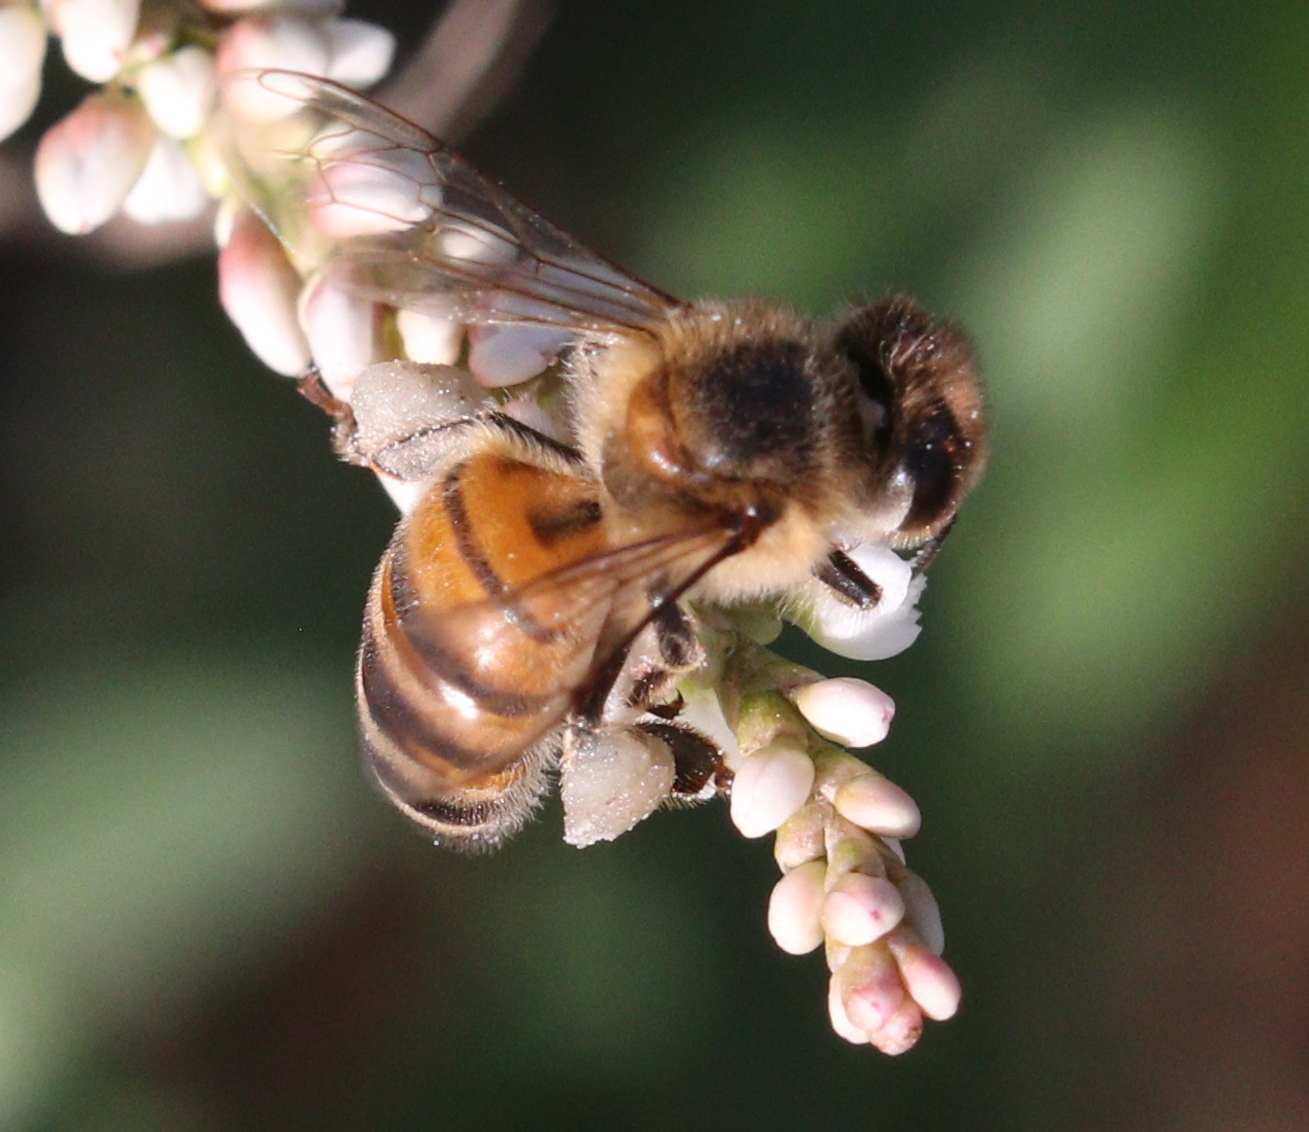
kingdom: Animalia
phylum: Arthropoda
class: Insecta
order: Hymenoptera
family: Apidae
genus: Apis
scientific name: Apis mellifera
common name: Honey bee
